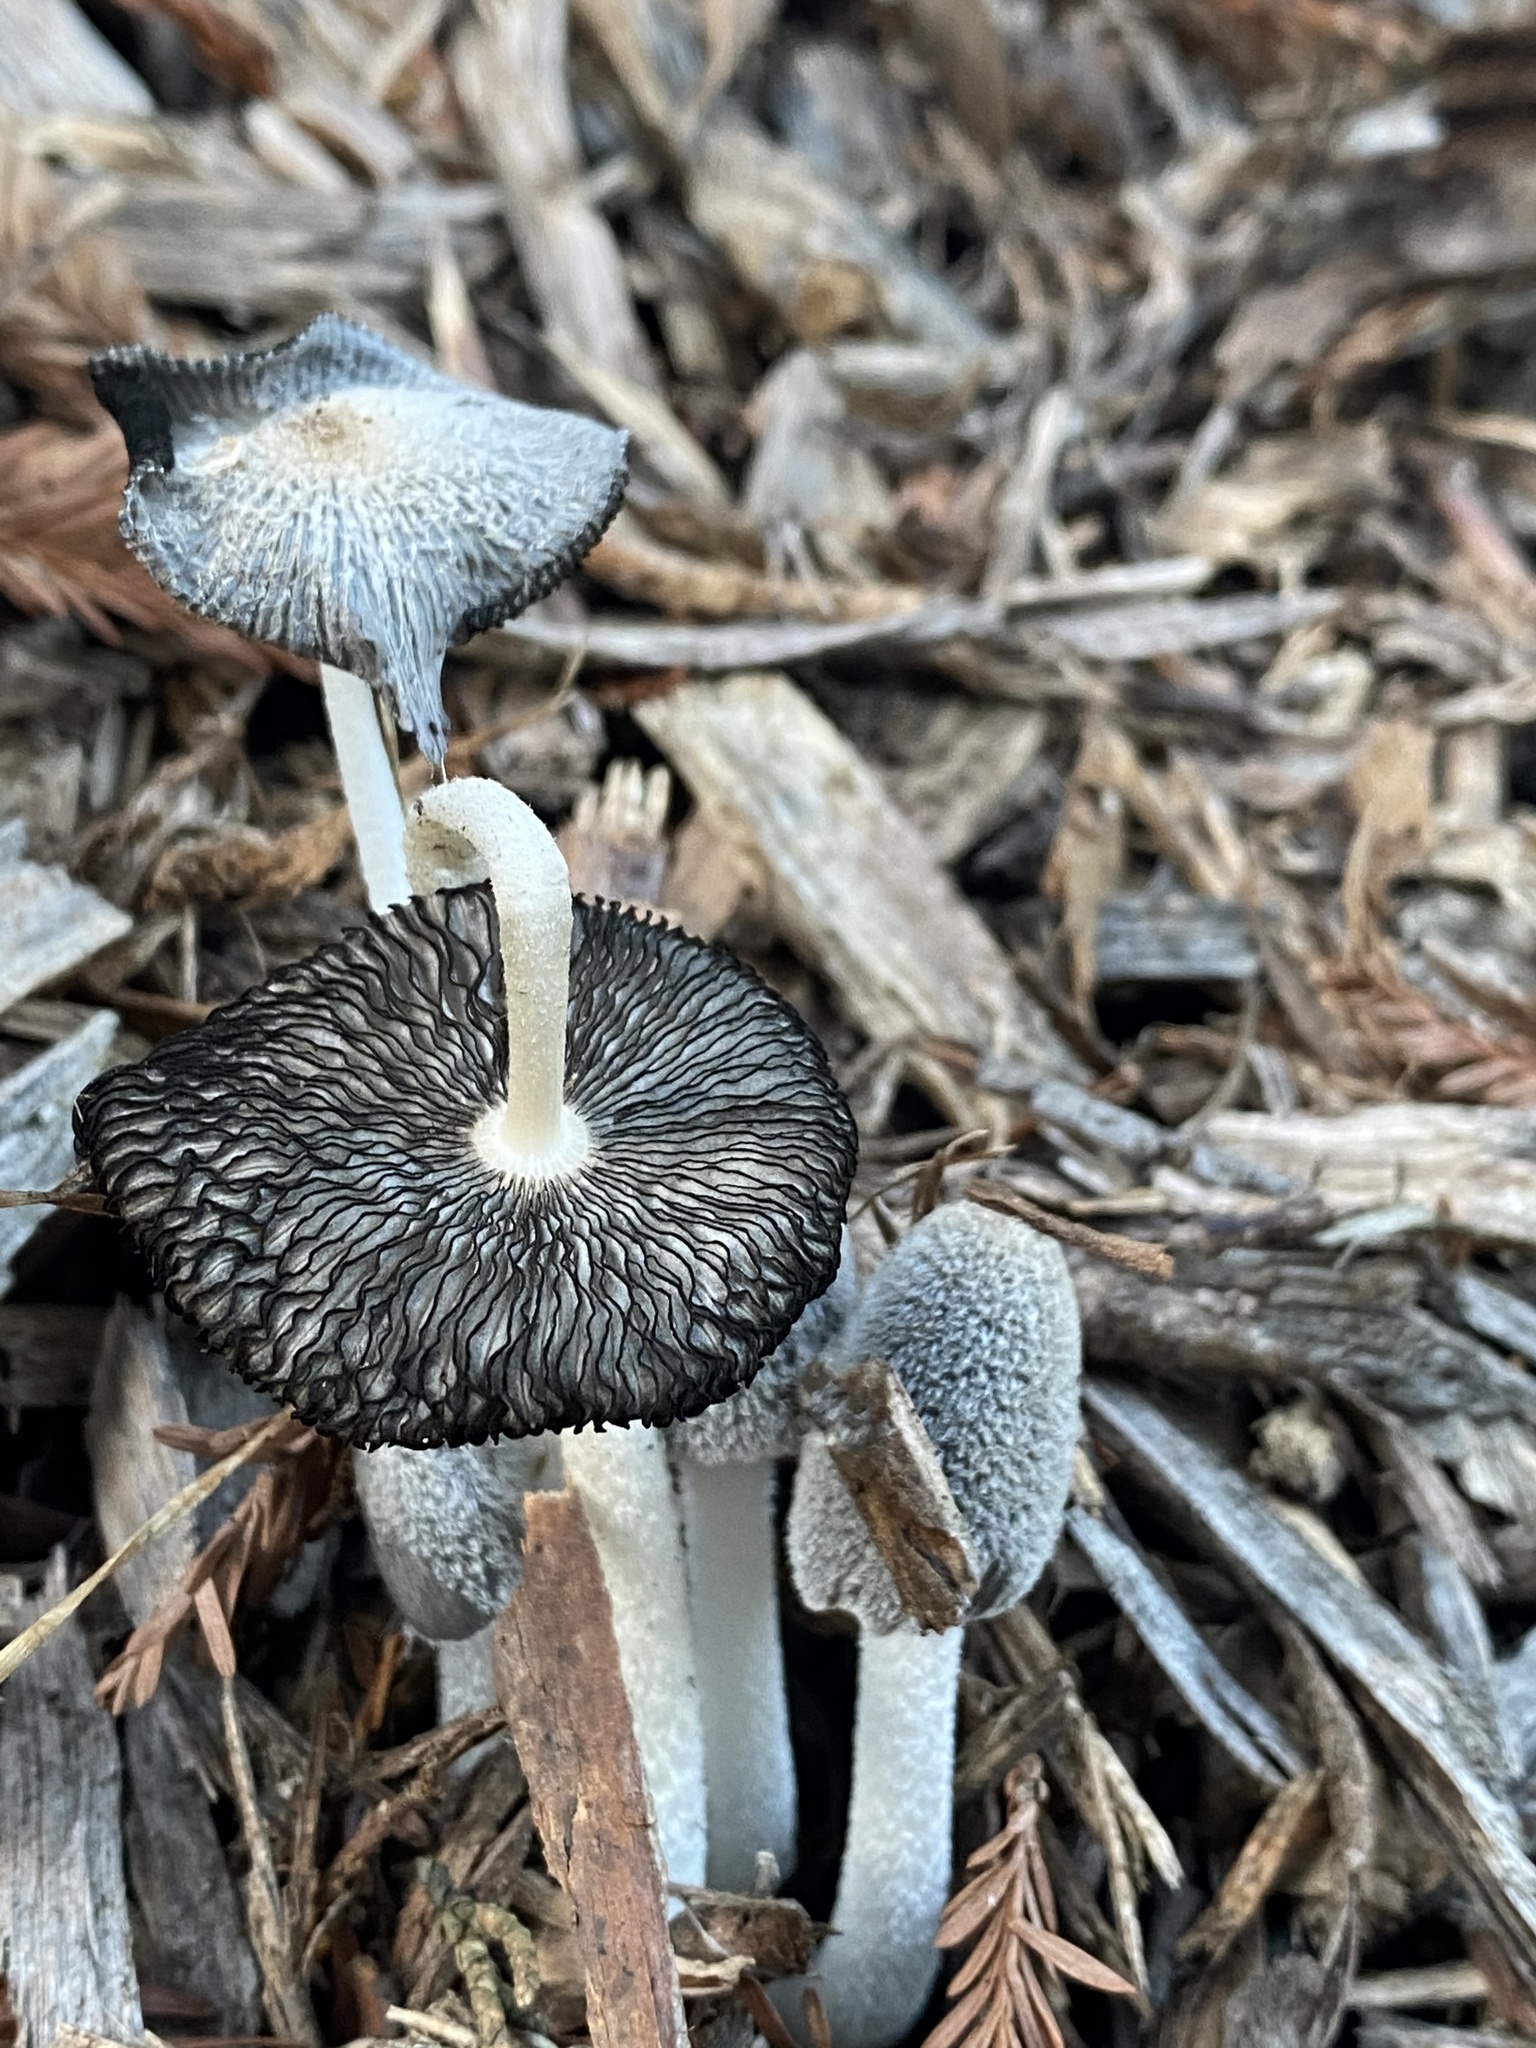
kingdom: Fungi
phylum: Basidiomycota
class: Agaricomycetes
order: Agaricales
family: Psathyrellaceae
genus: Coprinopsis
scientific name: Coprinopsis lagopus
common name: Hare'sfoot inkcap
